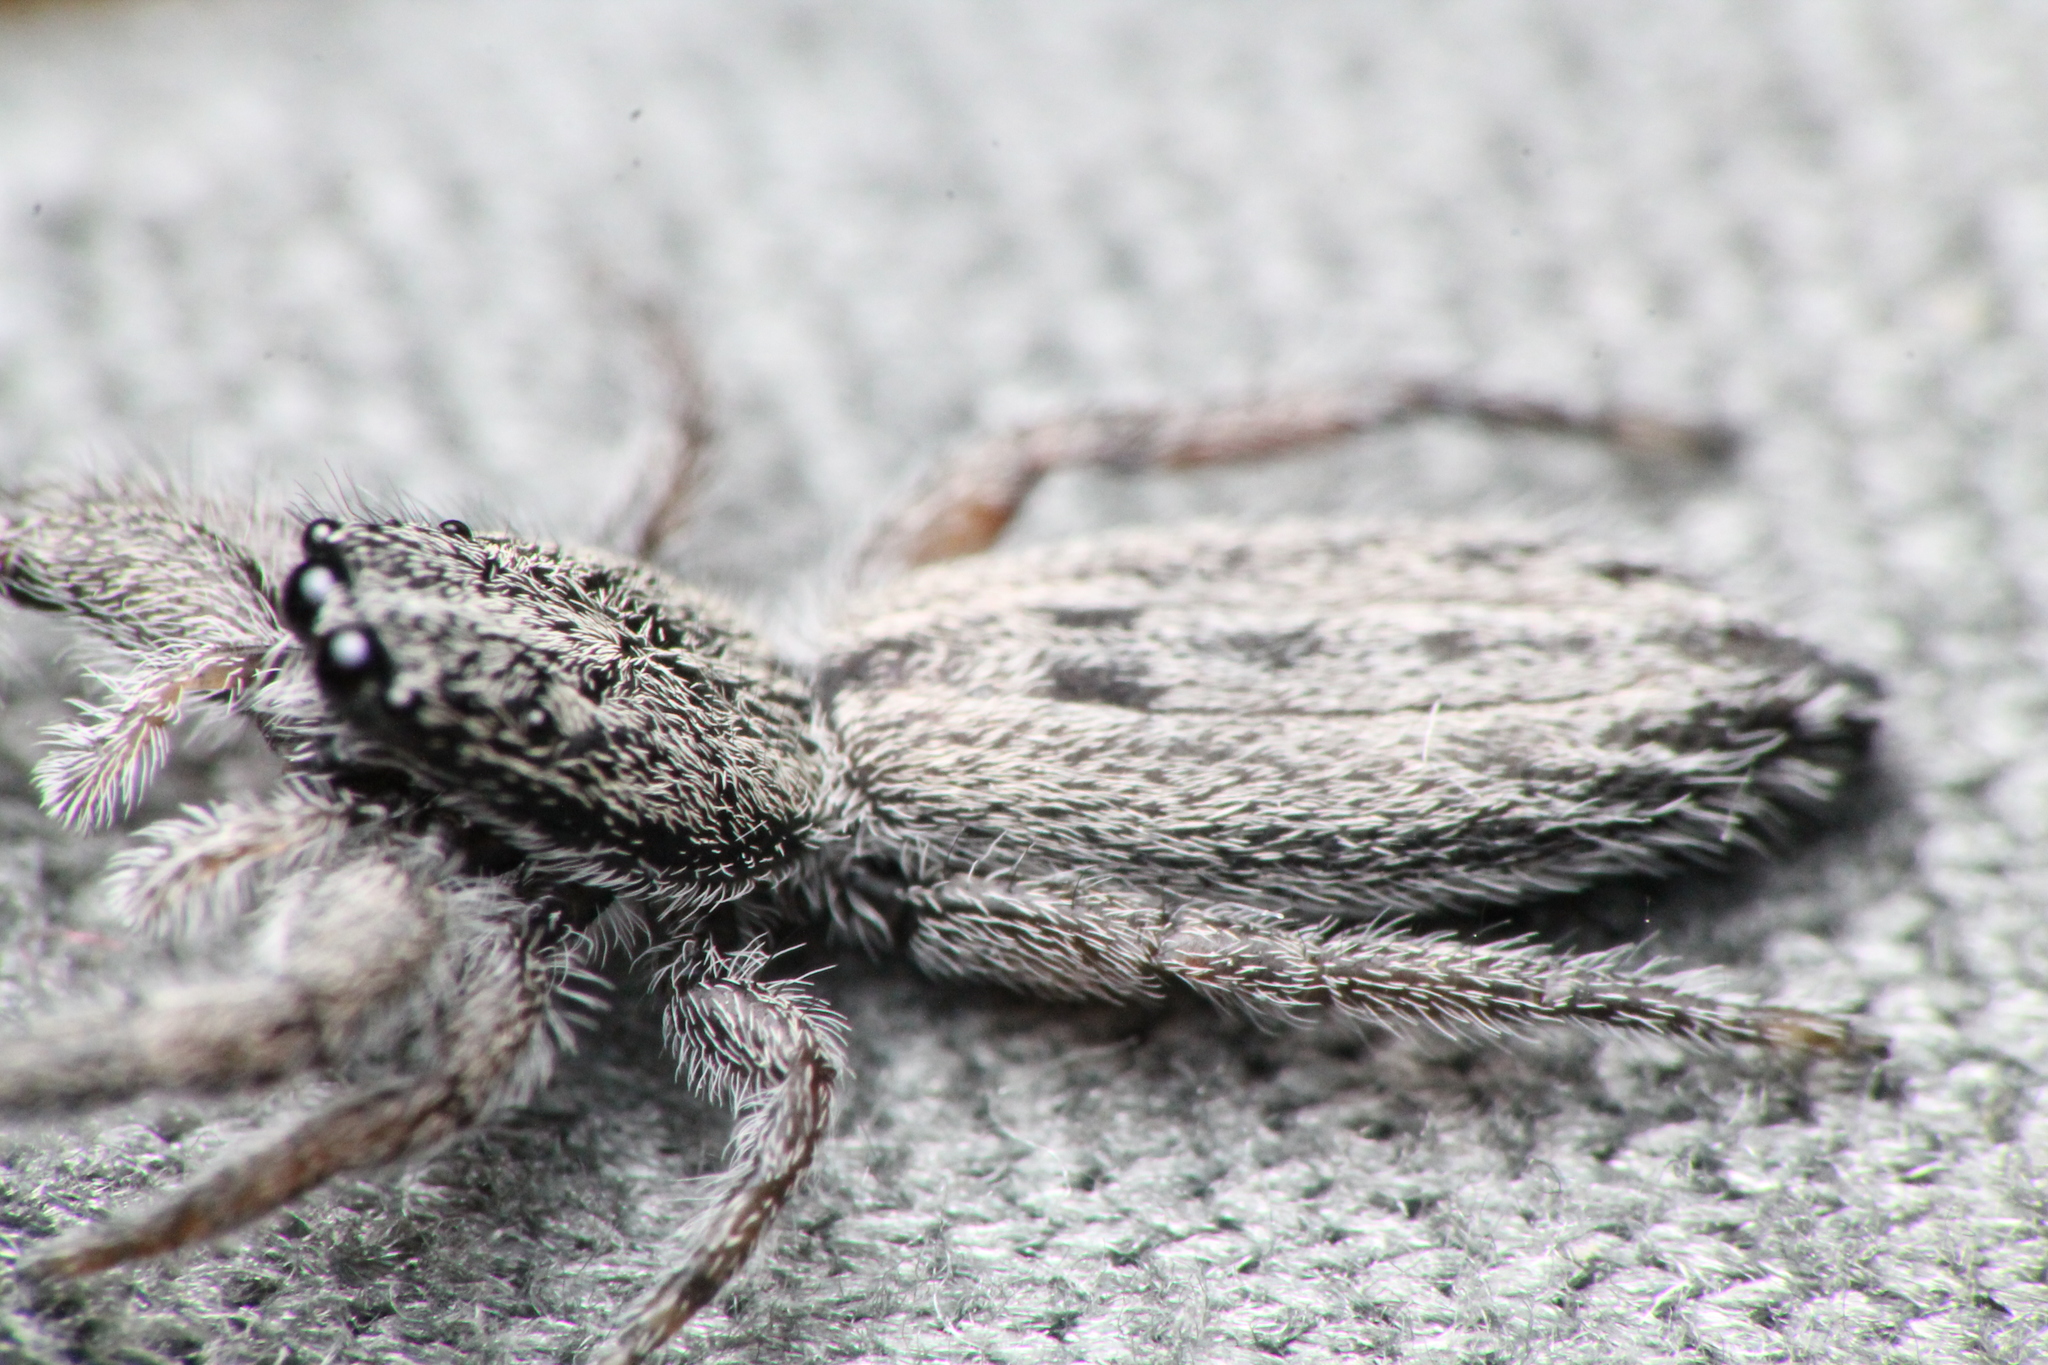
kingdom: Animalia
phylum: Arthropoda
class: Arachnida
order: Araneae
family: Salticidae
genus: Holoplatys
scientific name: Holoplatys apressus
